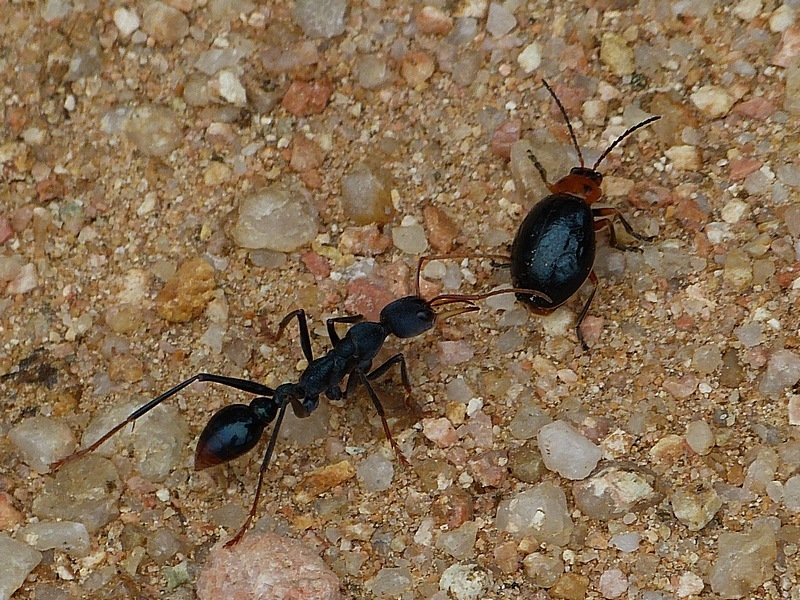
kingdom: Animalia
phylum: Arthropoda
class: Insecta
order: Hymenoptera
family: Formicidae
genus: Myrmecia
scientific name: Myrmecia tarsata
